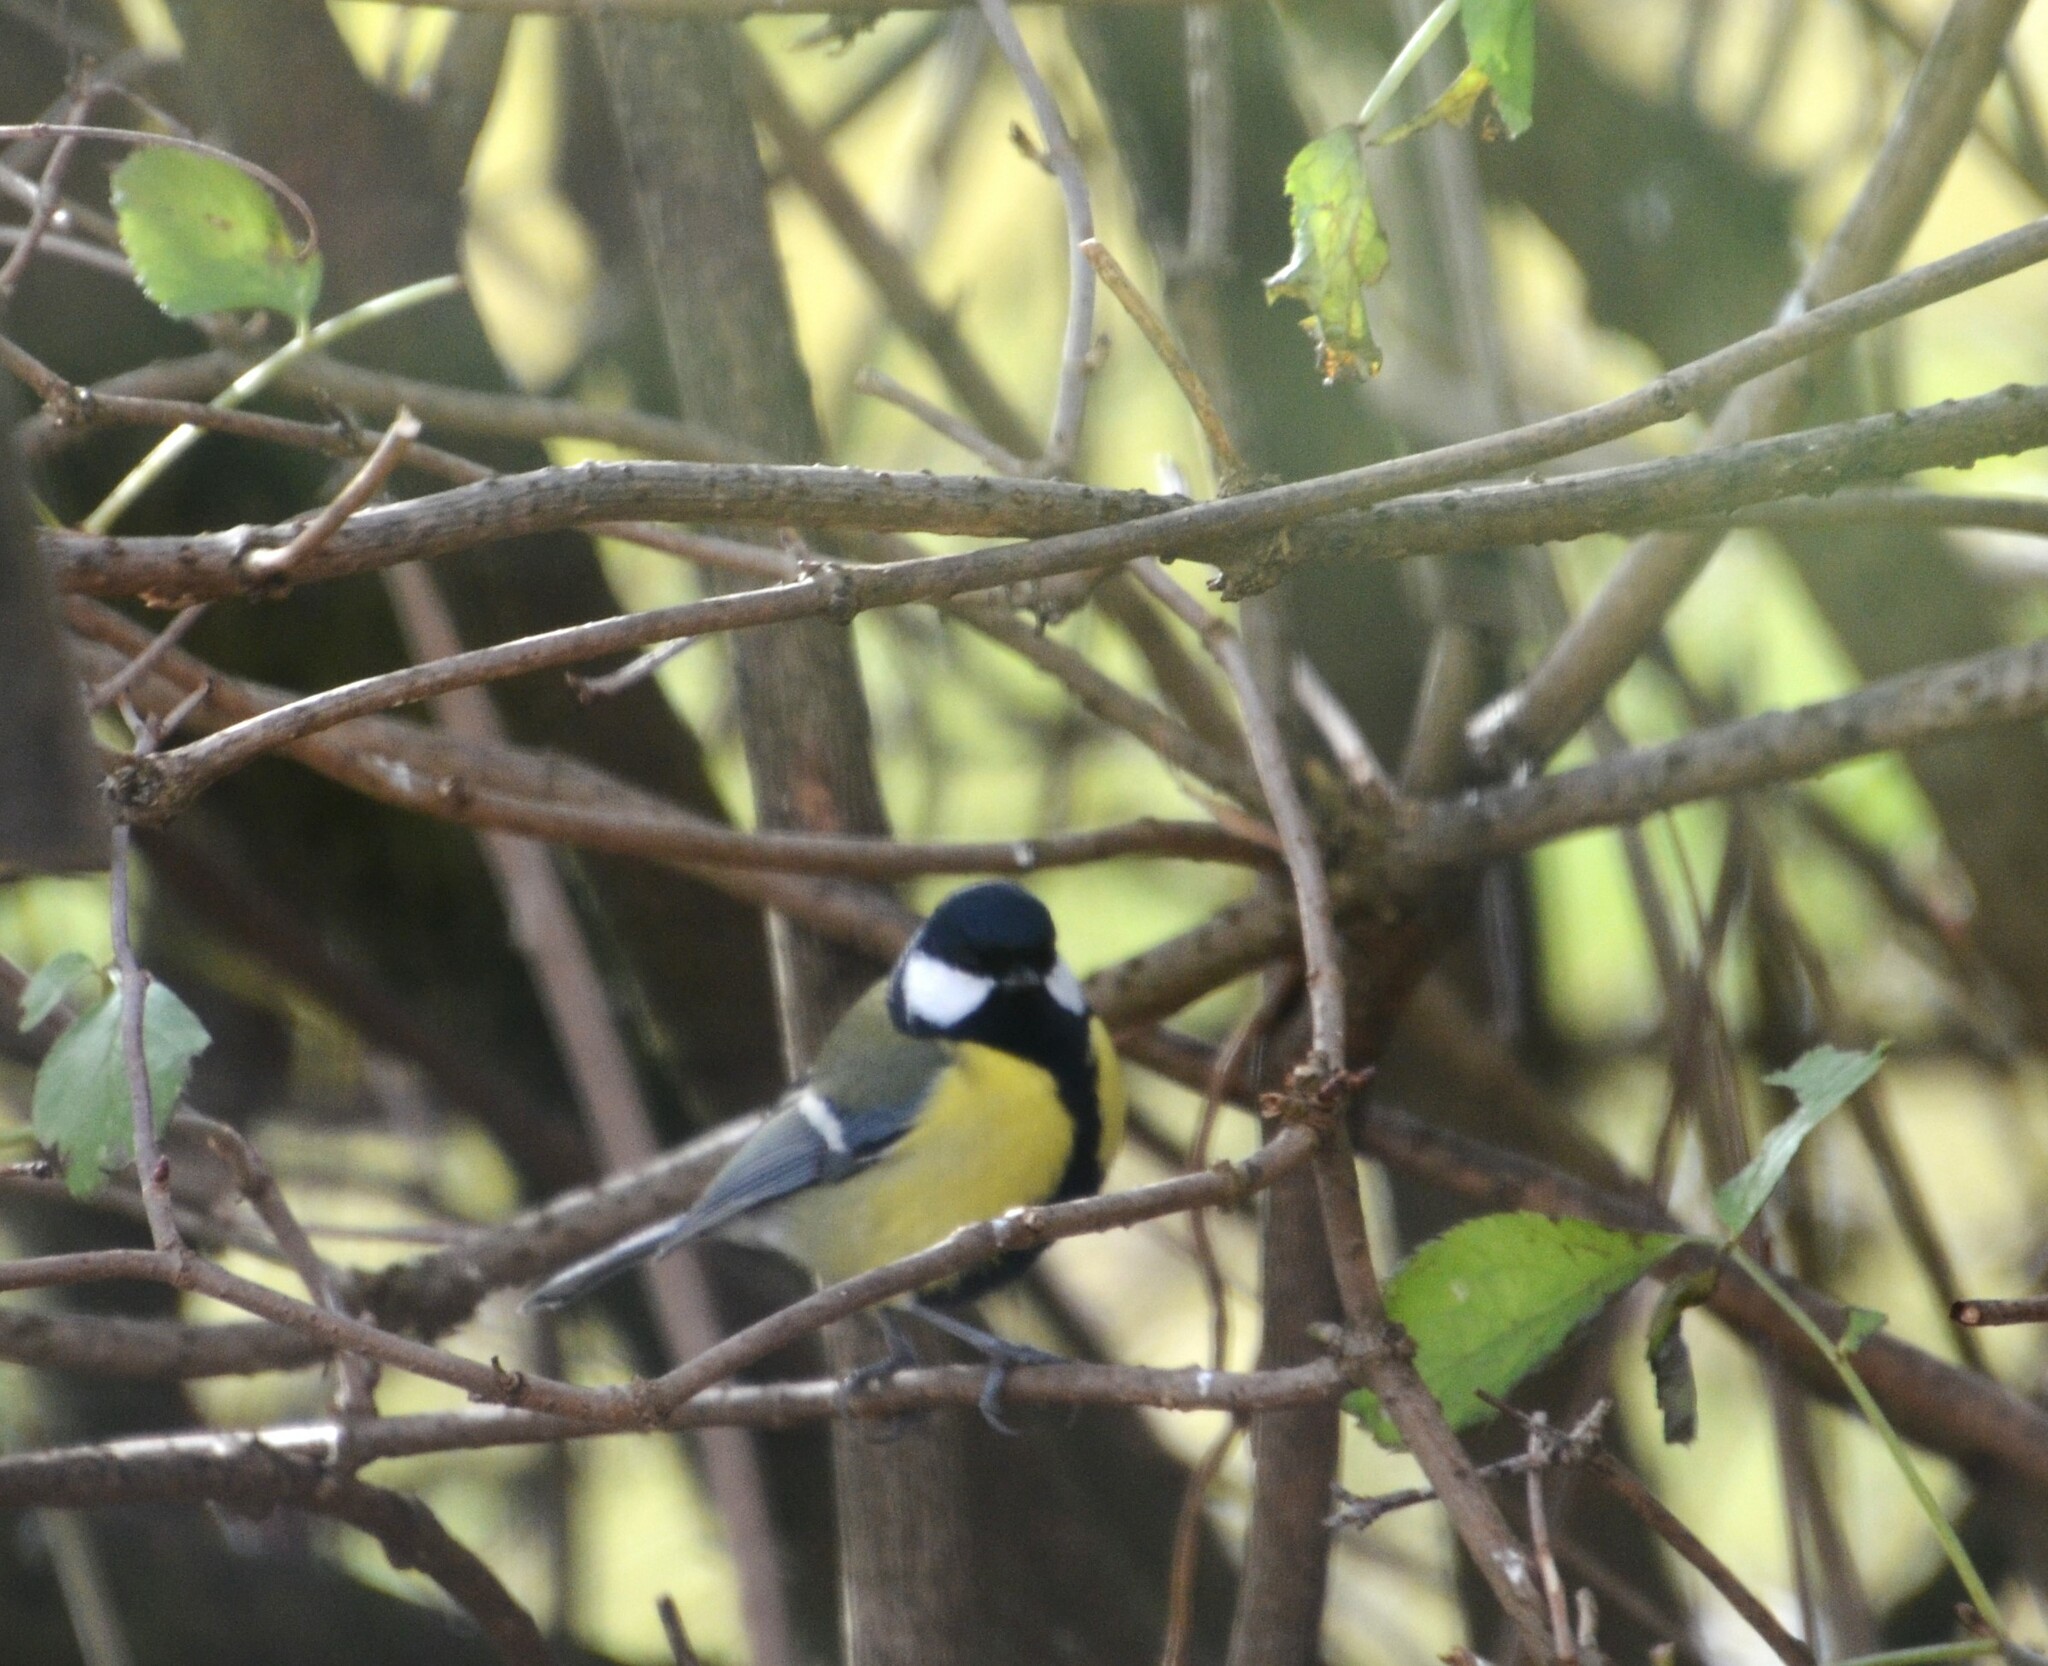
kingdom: Animalia
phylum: Chordata
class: Aves
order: Passeriformes
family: Paridae
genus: Parus
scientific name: Parus major
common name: Great tit
